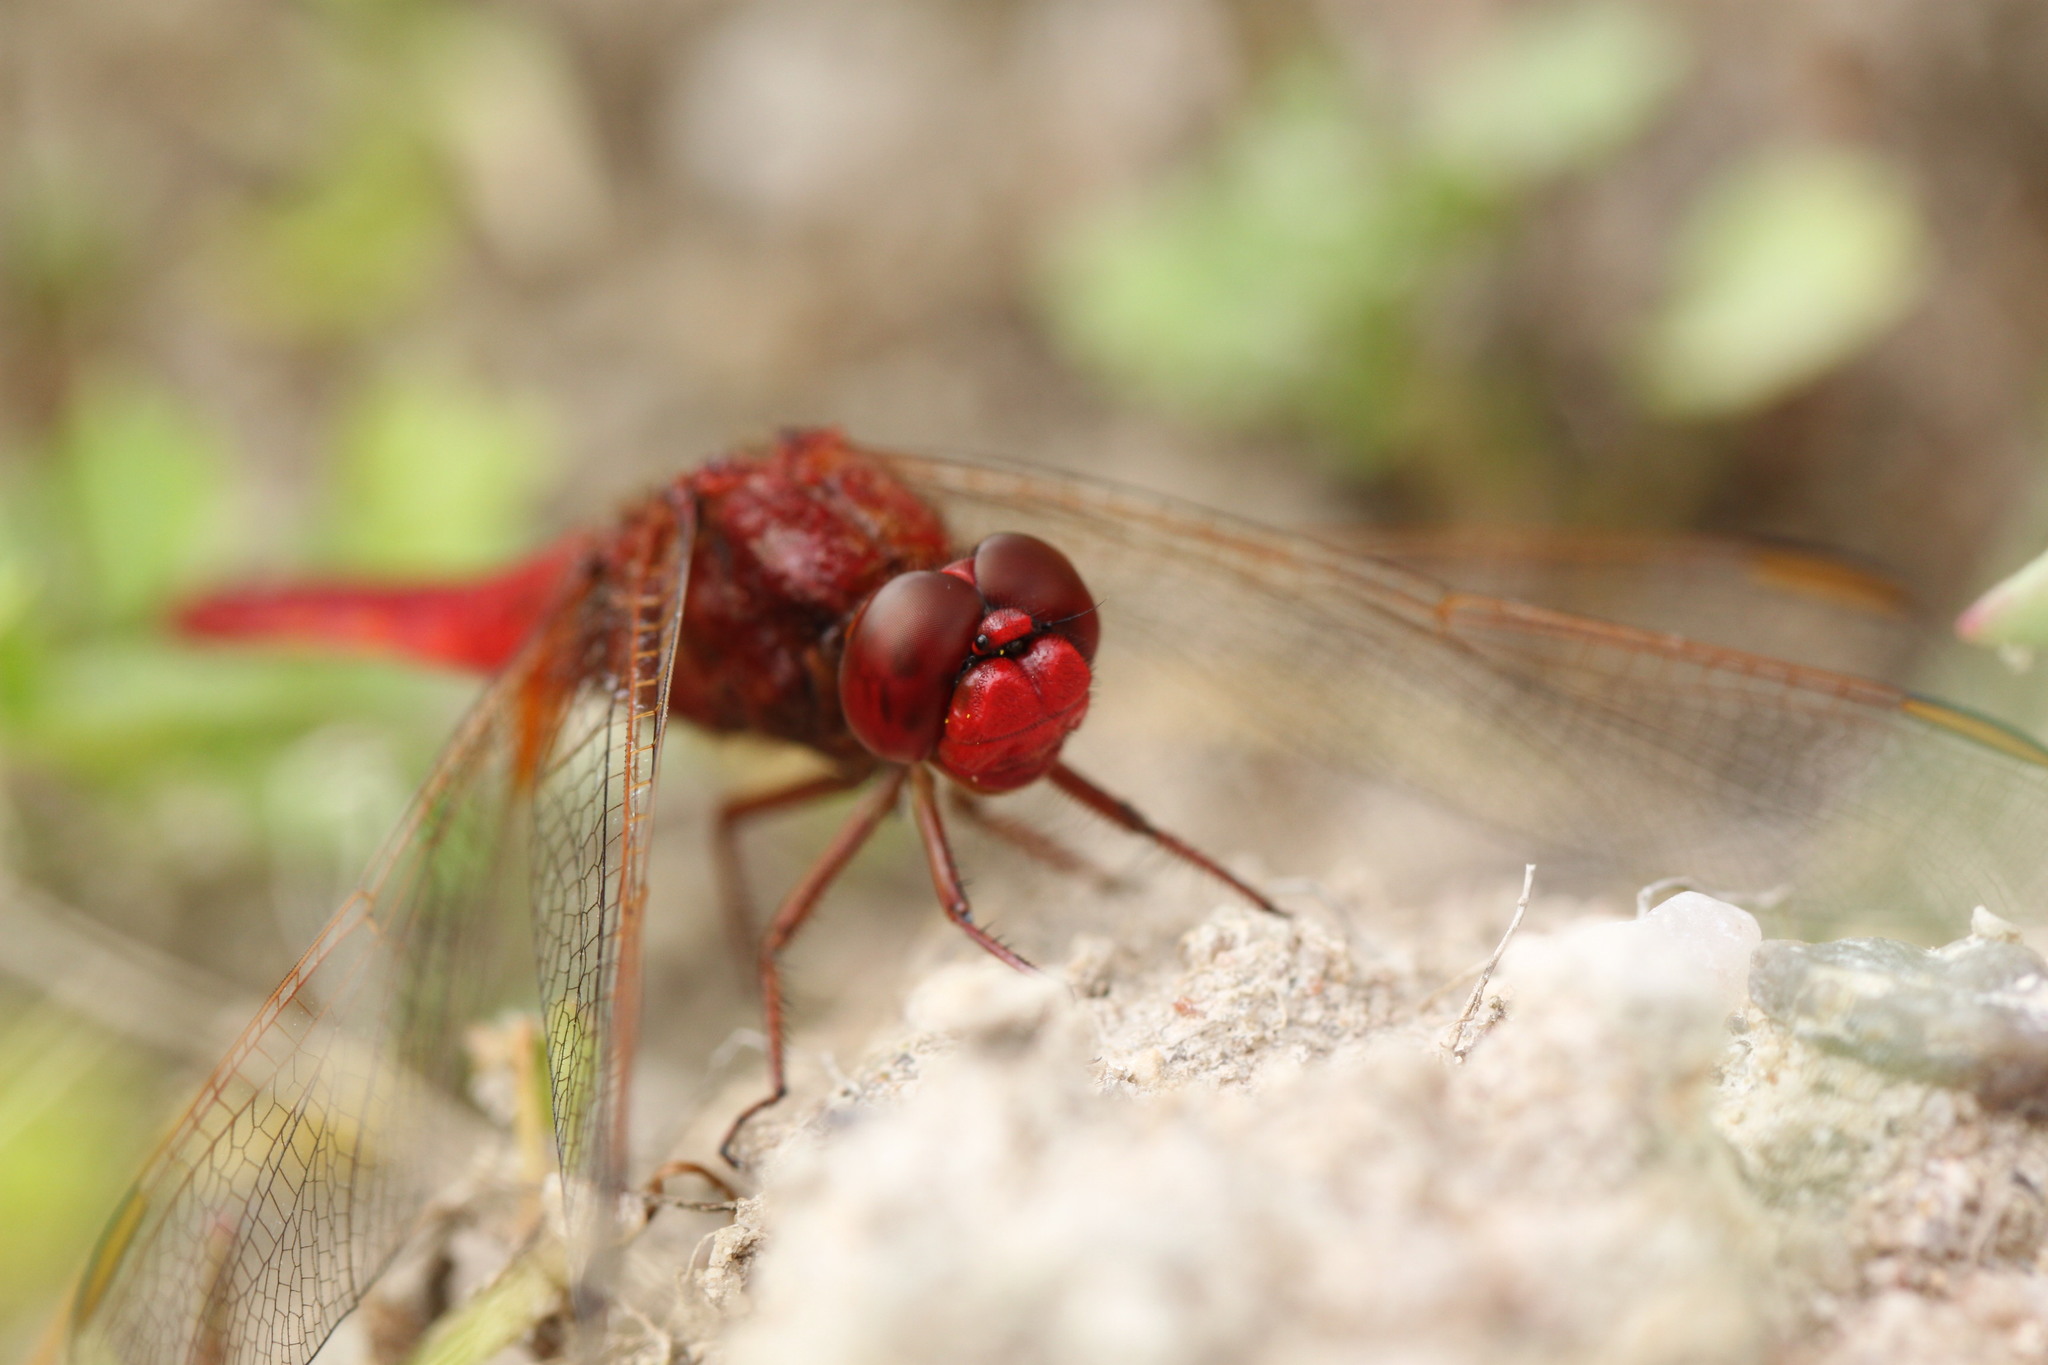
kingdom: Animalia
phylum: Arthropoda
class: Insecta
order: Odonata
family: Libellulidae
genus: Crocothemis
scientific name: Crocothemis erythraea
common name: Scarlet dragonfly
